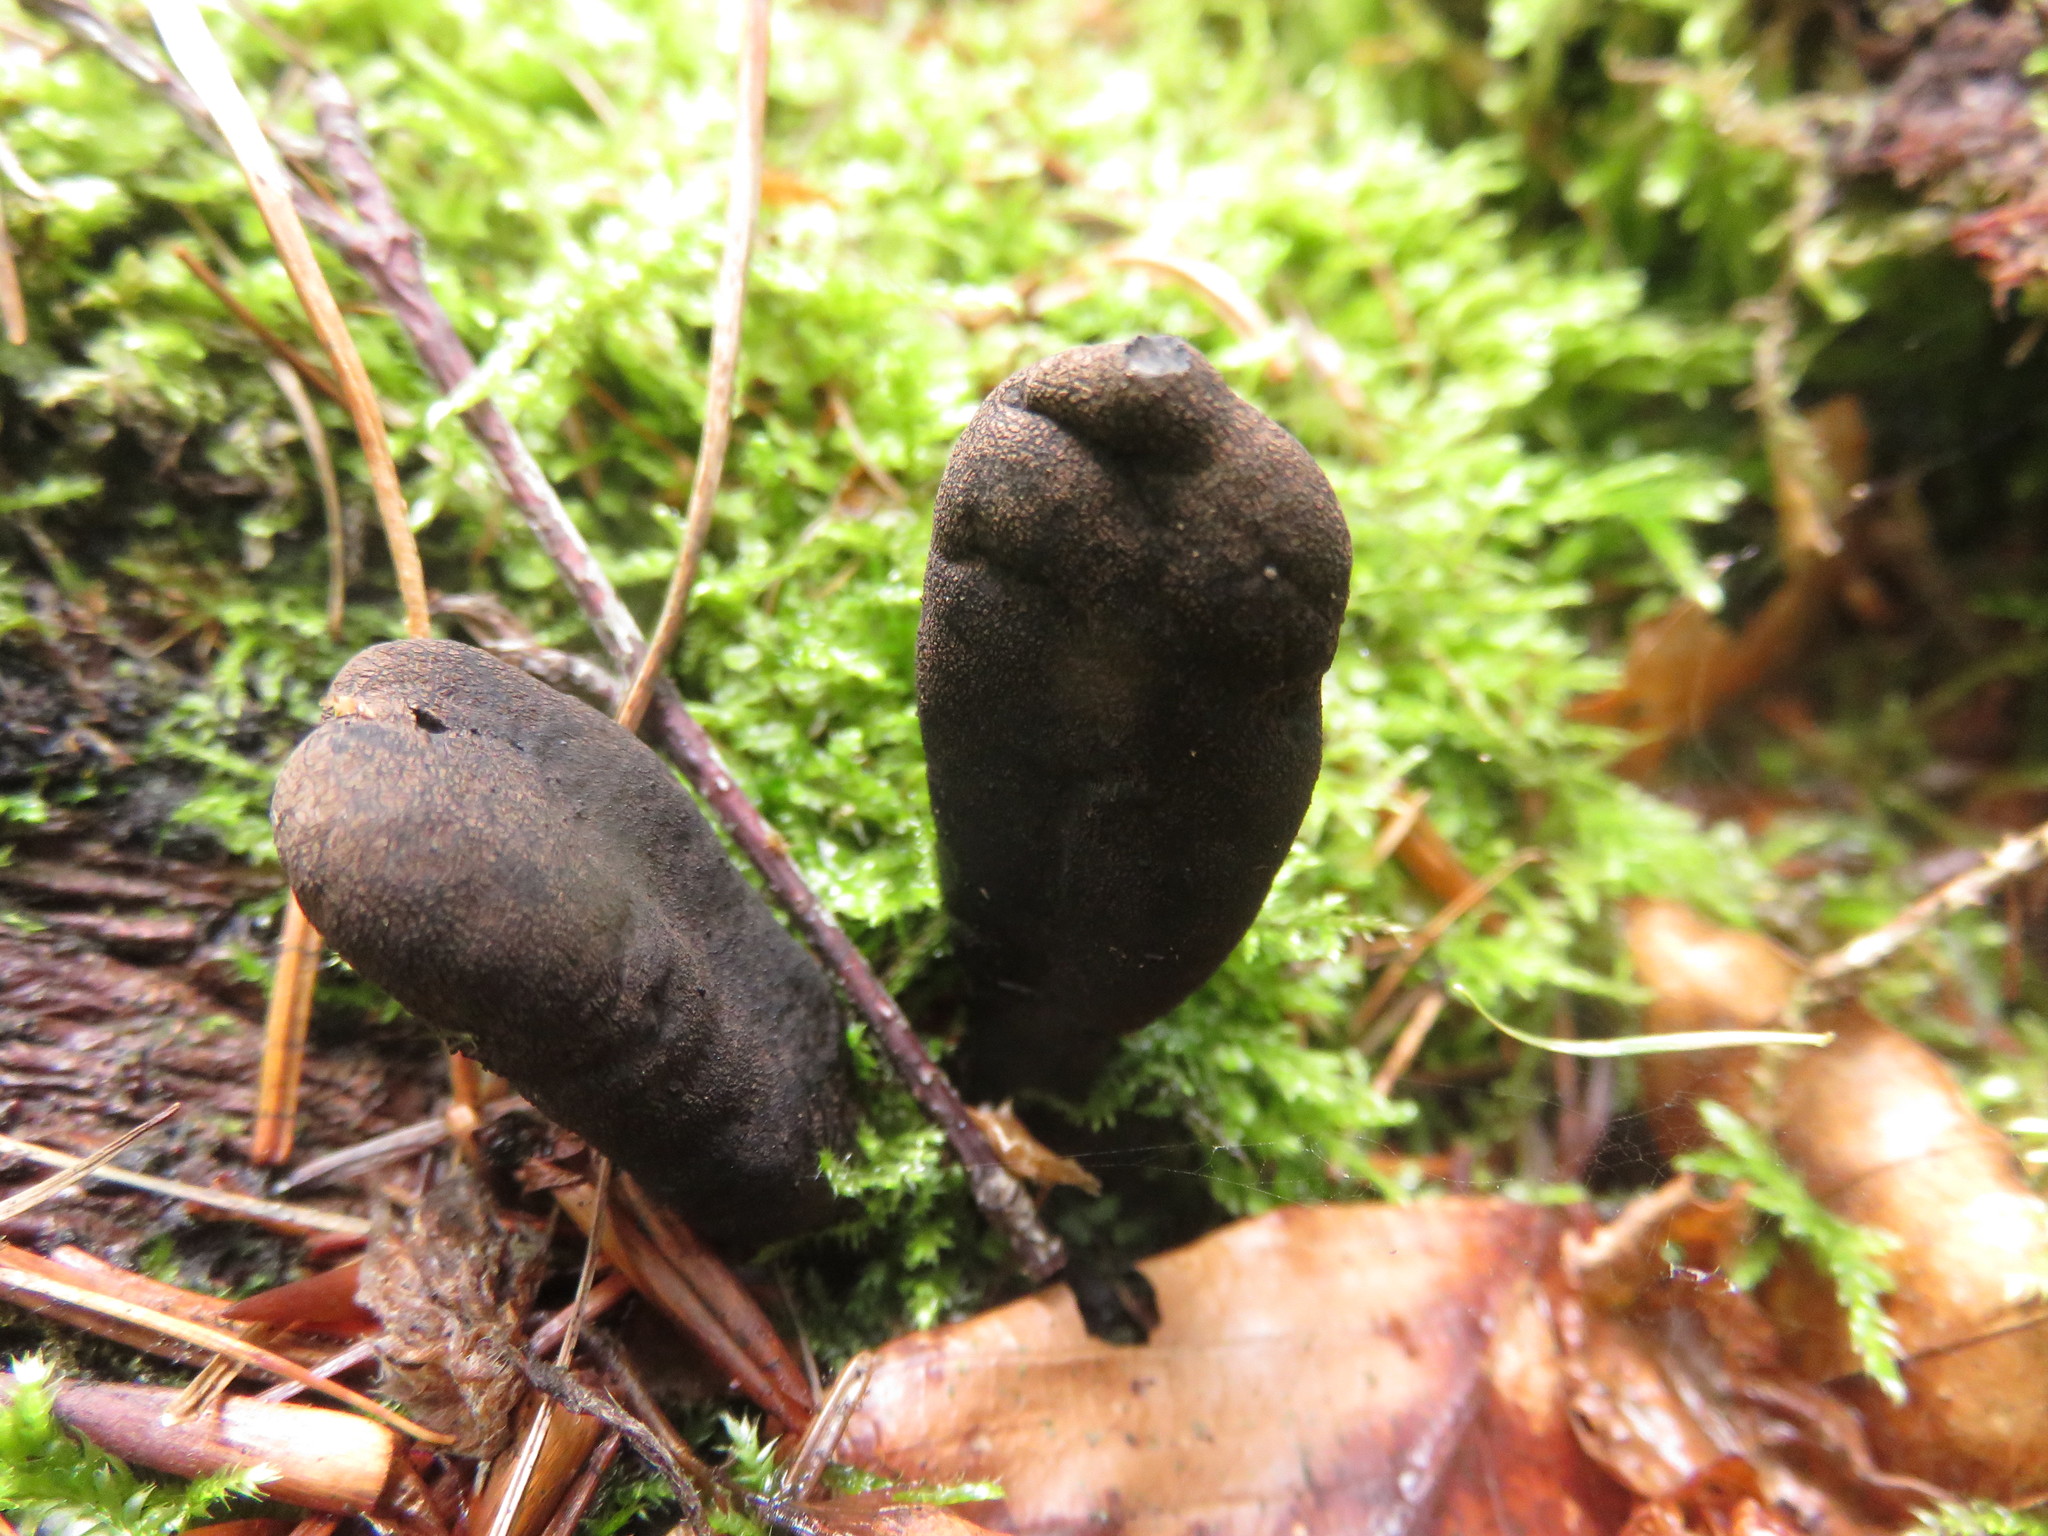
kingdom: Fungi
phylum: Ascomycota
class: Sordariomycetes
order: Xylariales
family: Xylariaceae
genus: Xylaria
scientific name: Xylaria polymorpha
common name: Dead man's fingers
